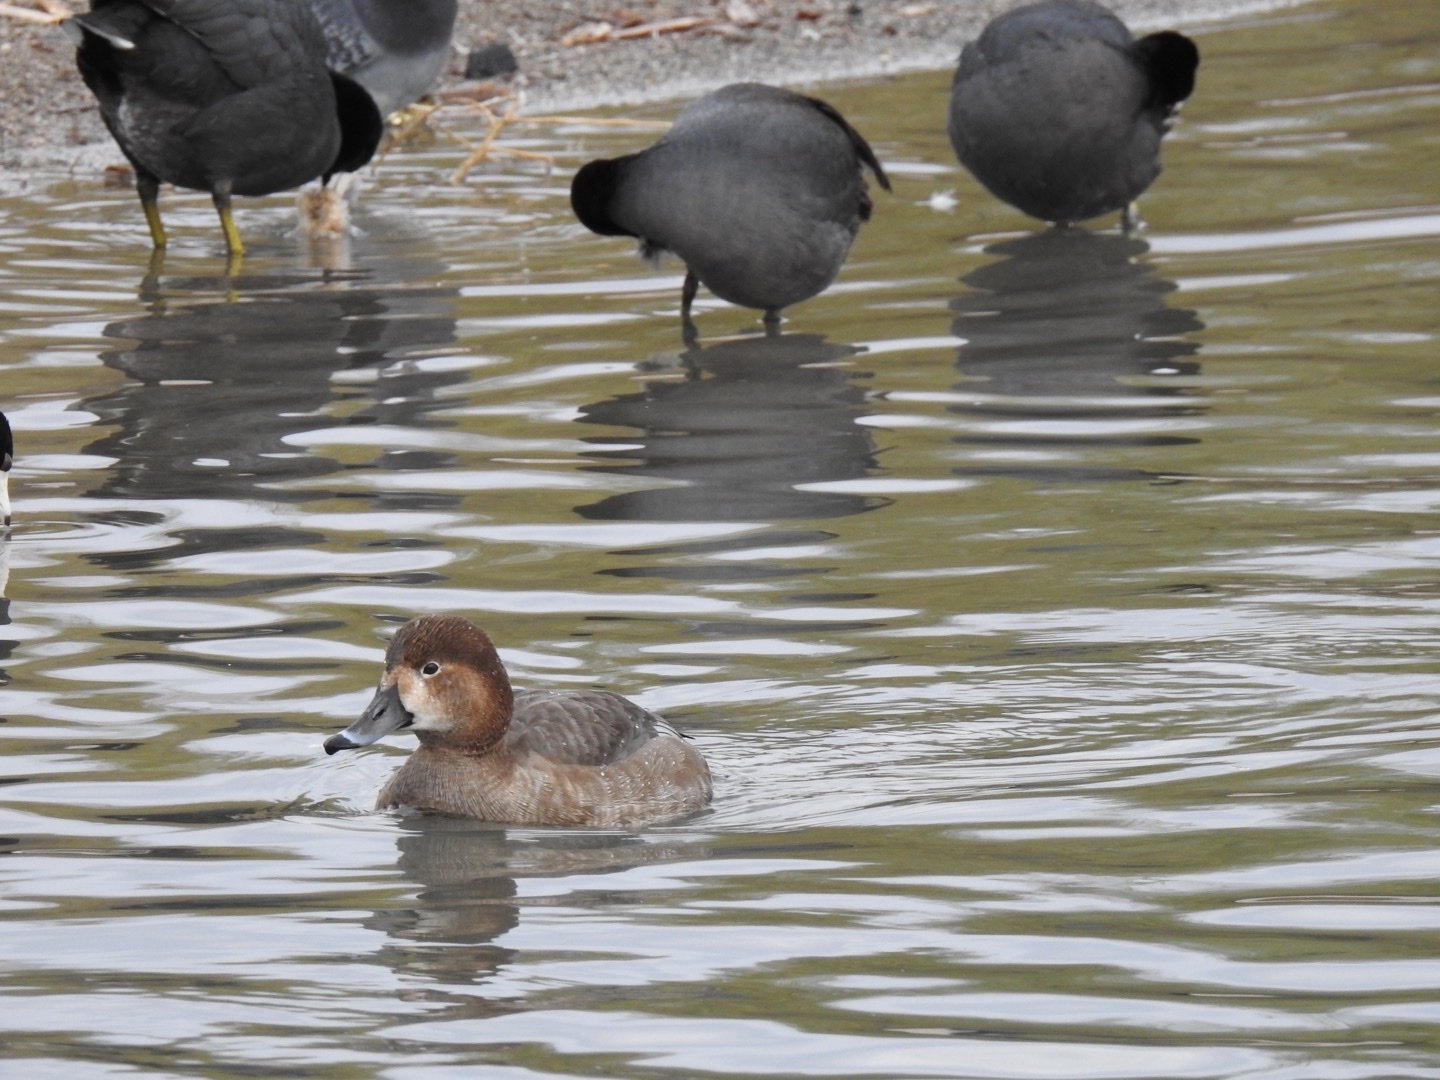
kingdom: Animalia
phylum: Chordata
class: Aves
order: Gruiformes
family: Rallidae
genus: Fulica
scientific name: Fulica americana
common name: American coot
